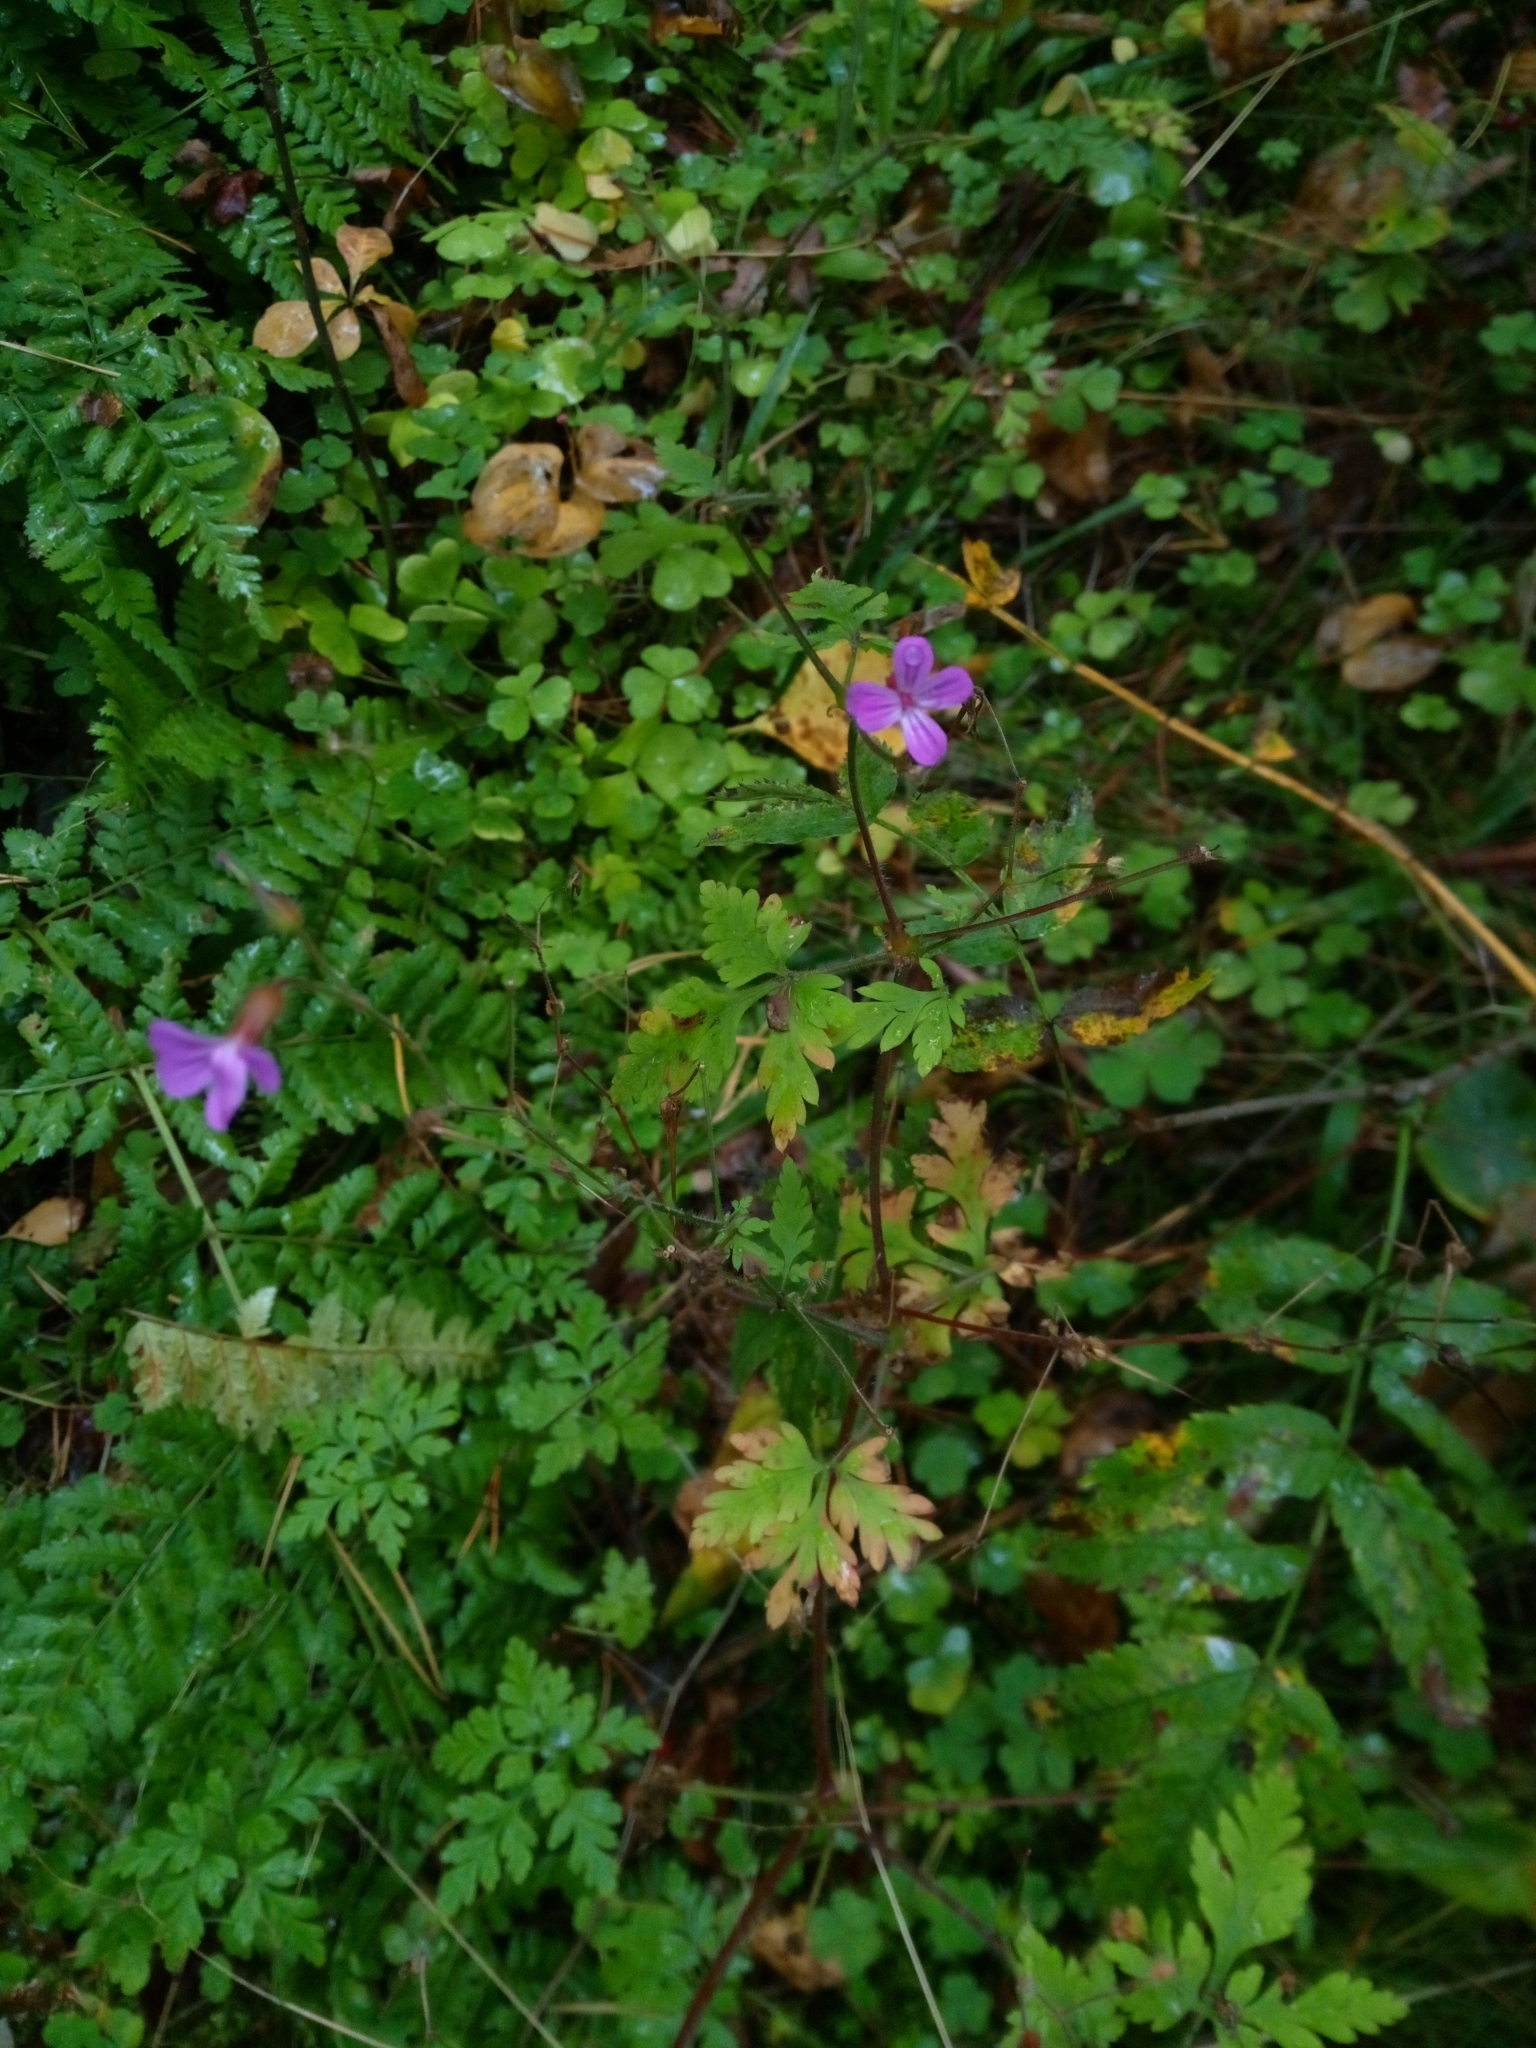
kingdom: Plantae
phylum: Tracheophyta
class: Magnoliopsida
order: Geraniales
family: Geraniaceae
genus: Geranium
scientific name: Geranium robertianum
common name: Herb-robert
